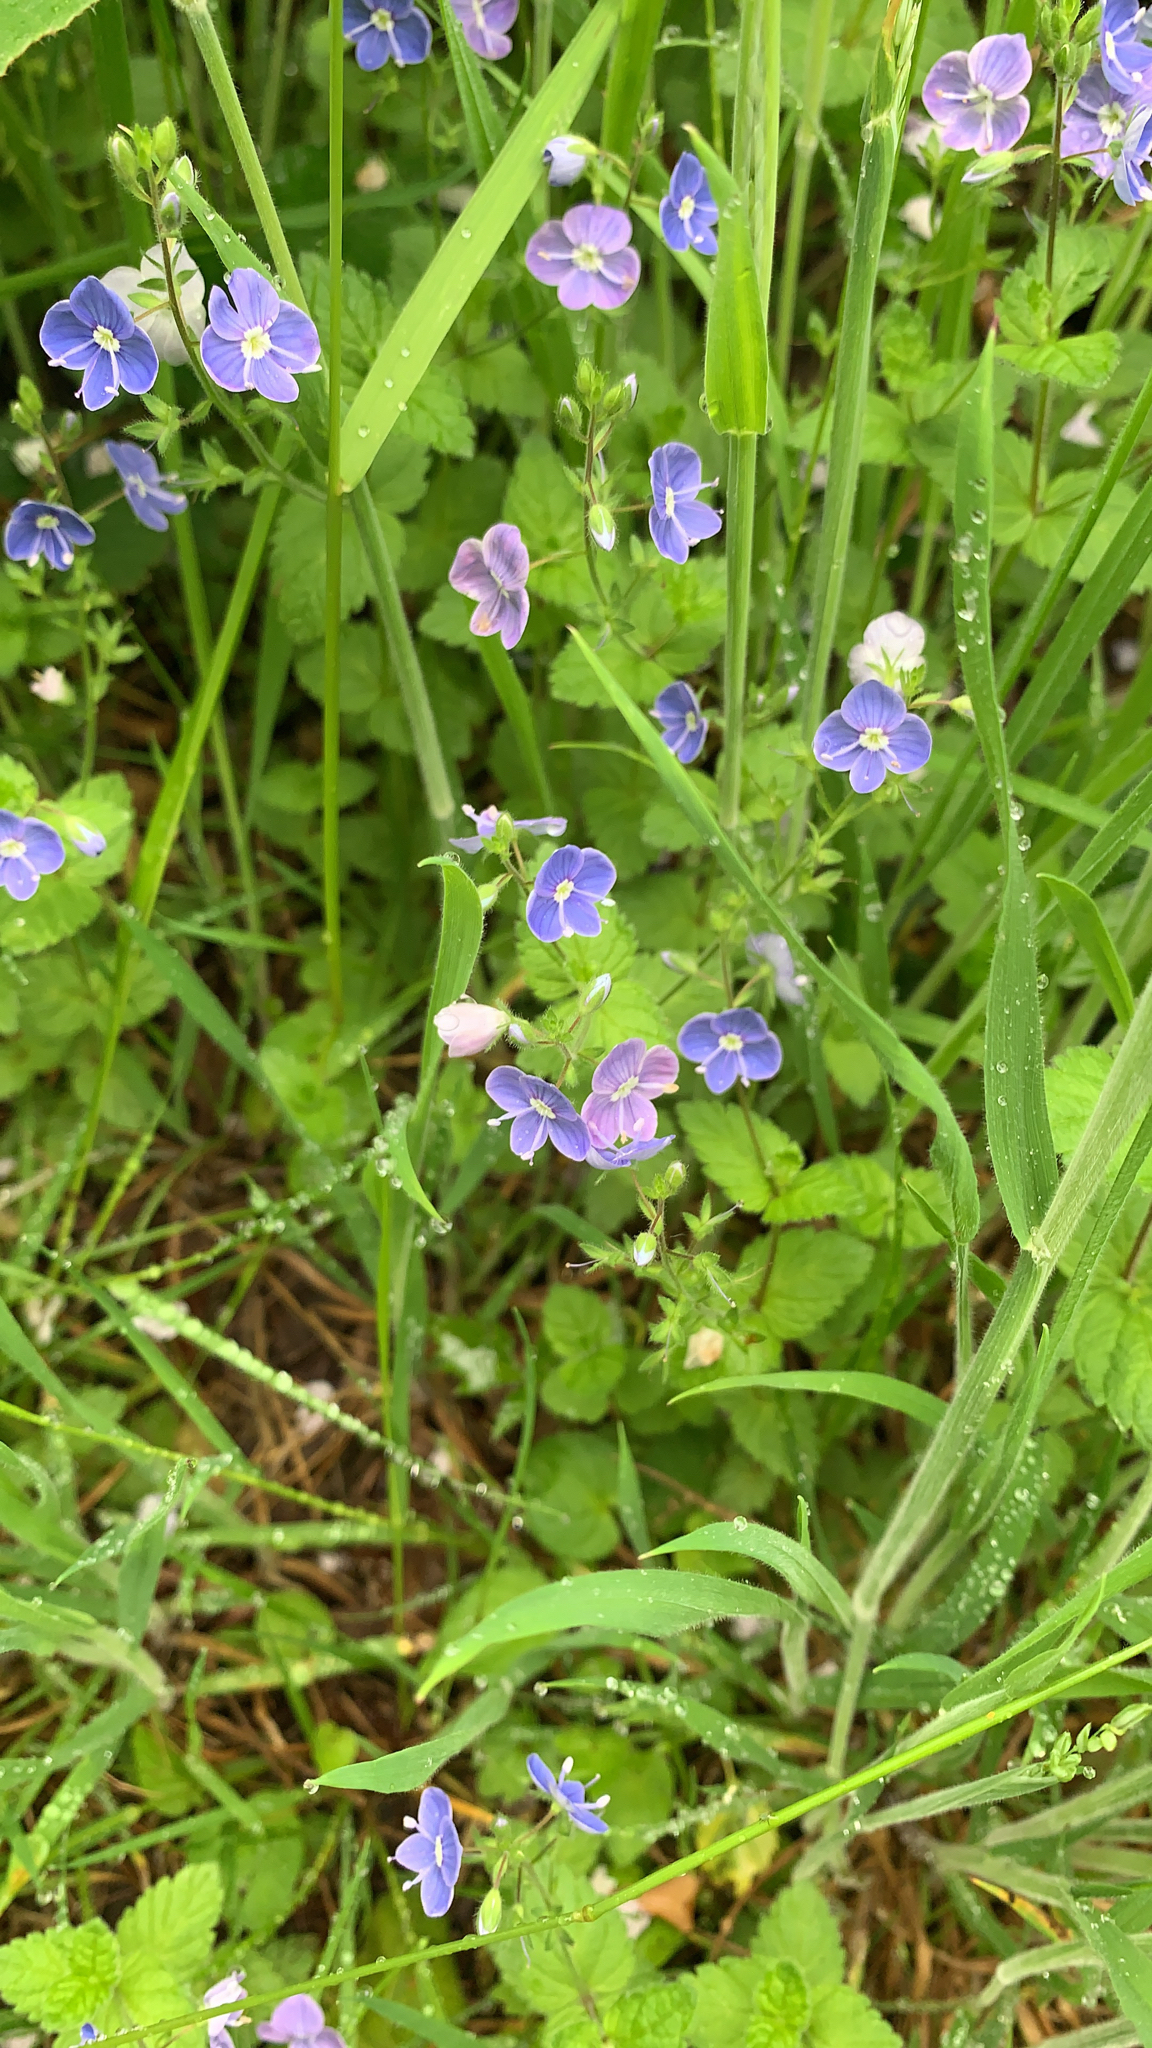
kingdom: Plantae
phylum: Tracheophyta
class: Magnoliopsida
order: Lamiales
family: Plantaginaceae
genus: Veronica
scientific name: Veronica chamaedrys
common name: Germander speedwell
